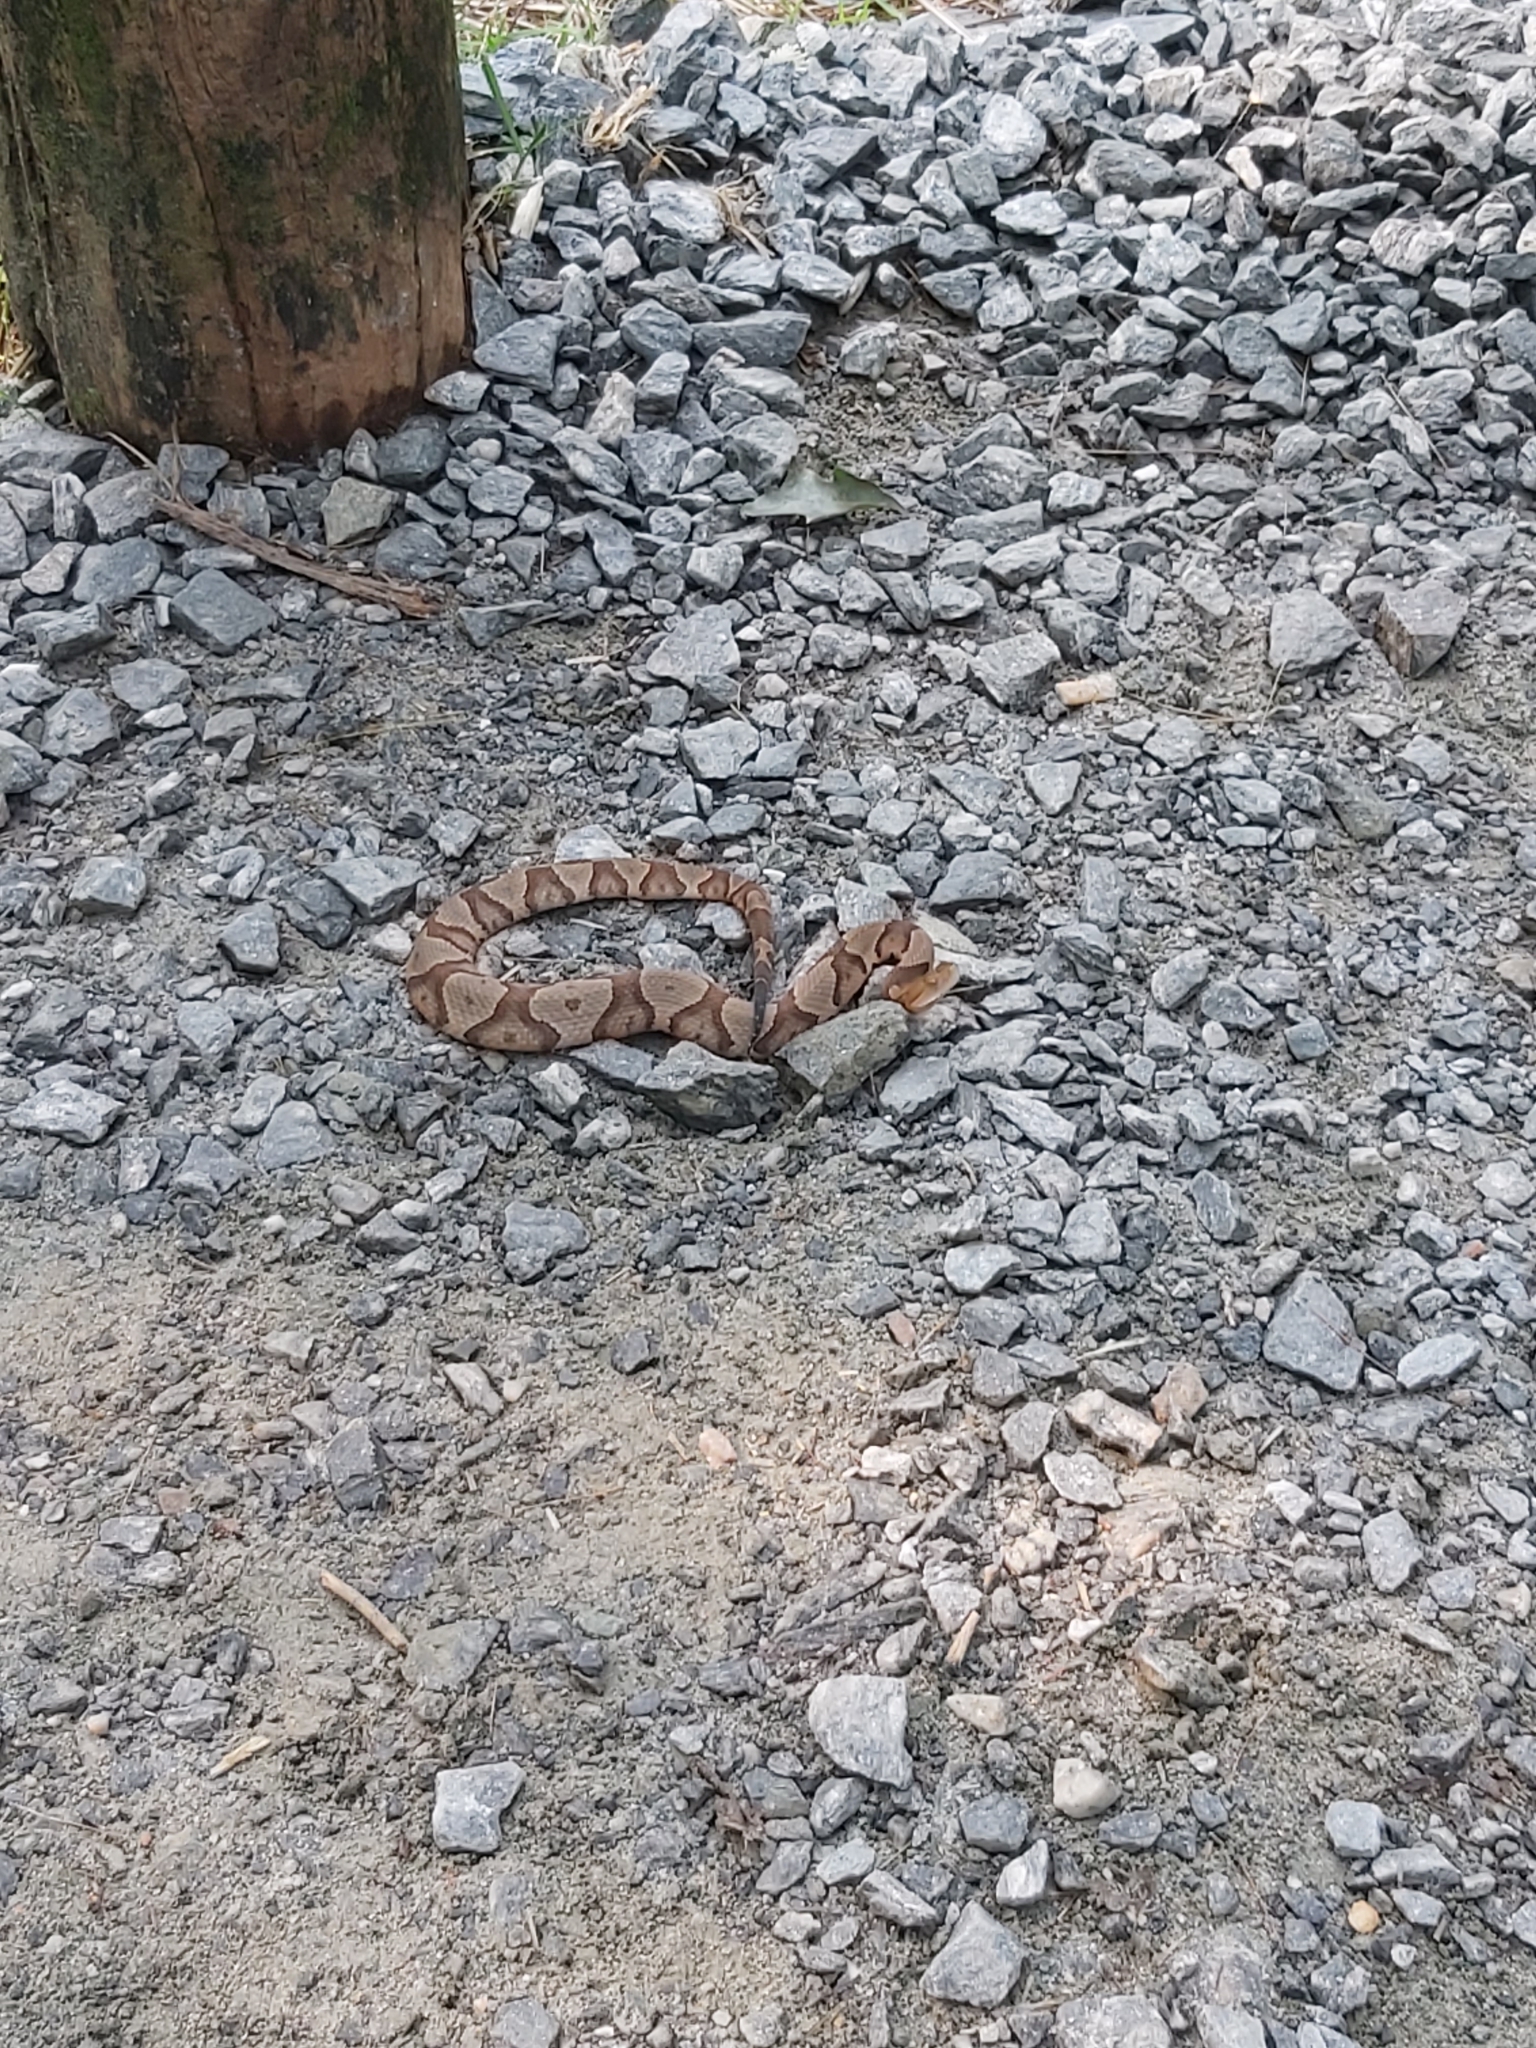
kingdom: Animalia
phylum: Chordata
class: Squamata
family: Viperidae
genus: Agkistrodon
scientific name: Agkistrodon contortrix
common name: Northern copperhead
